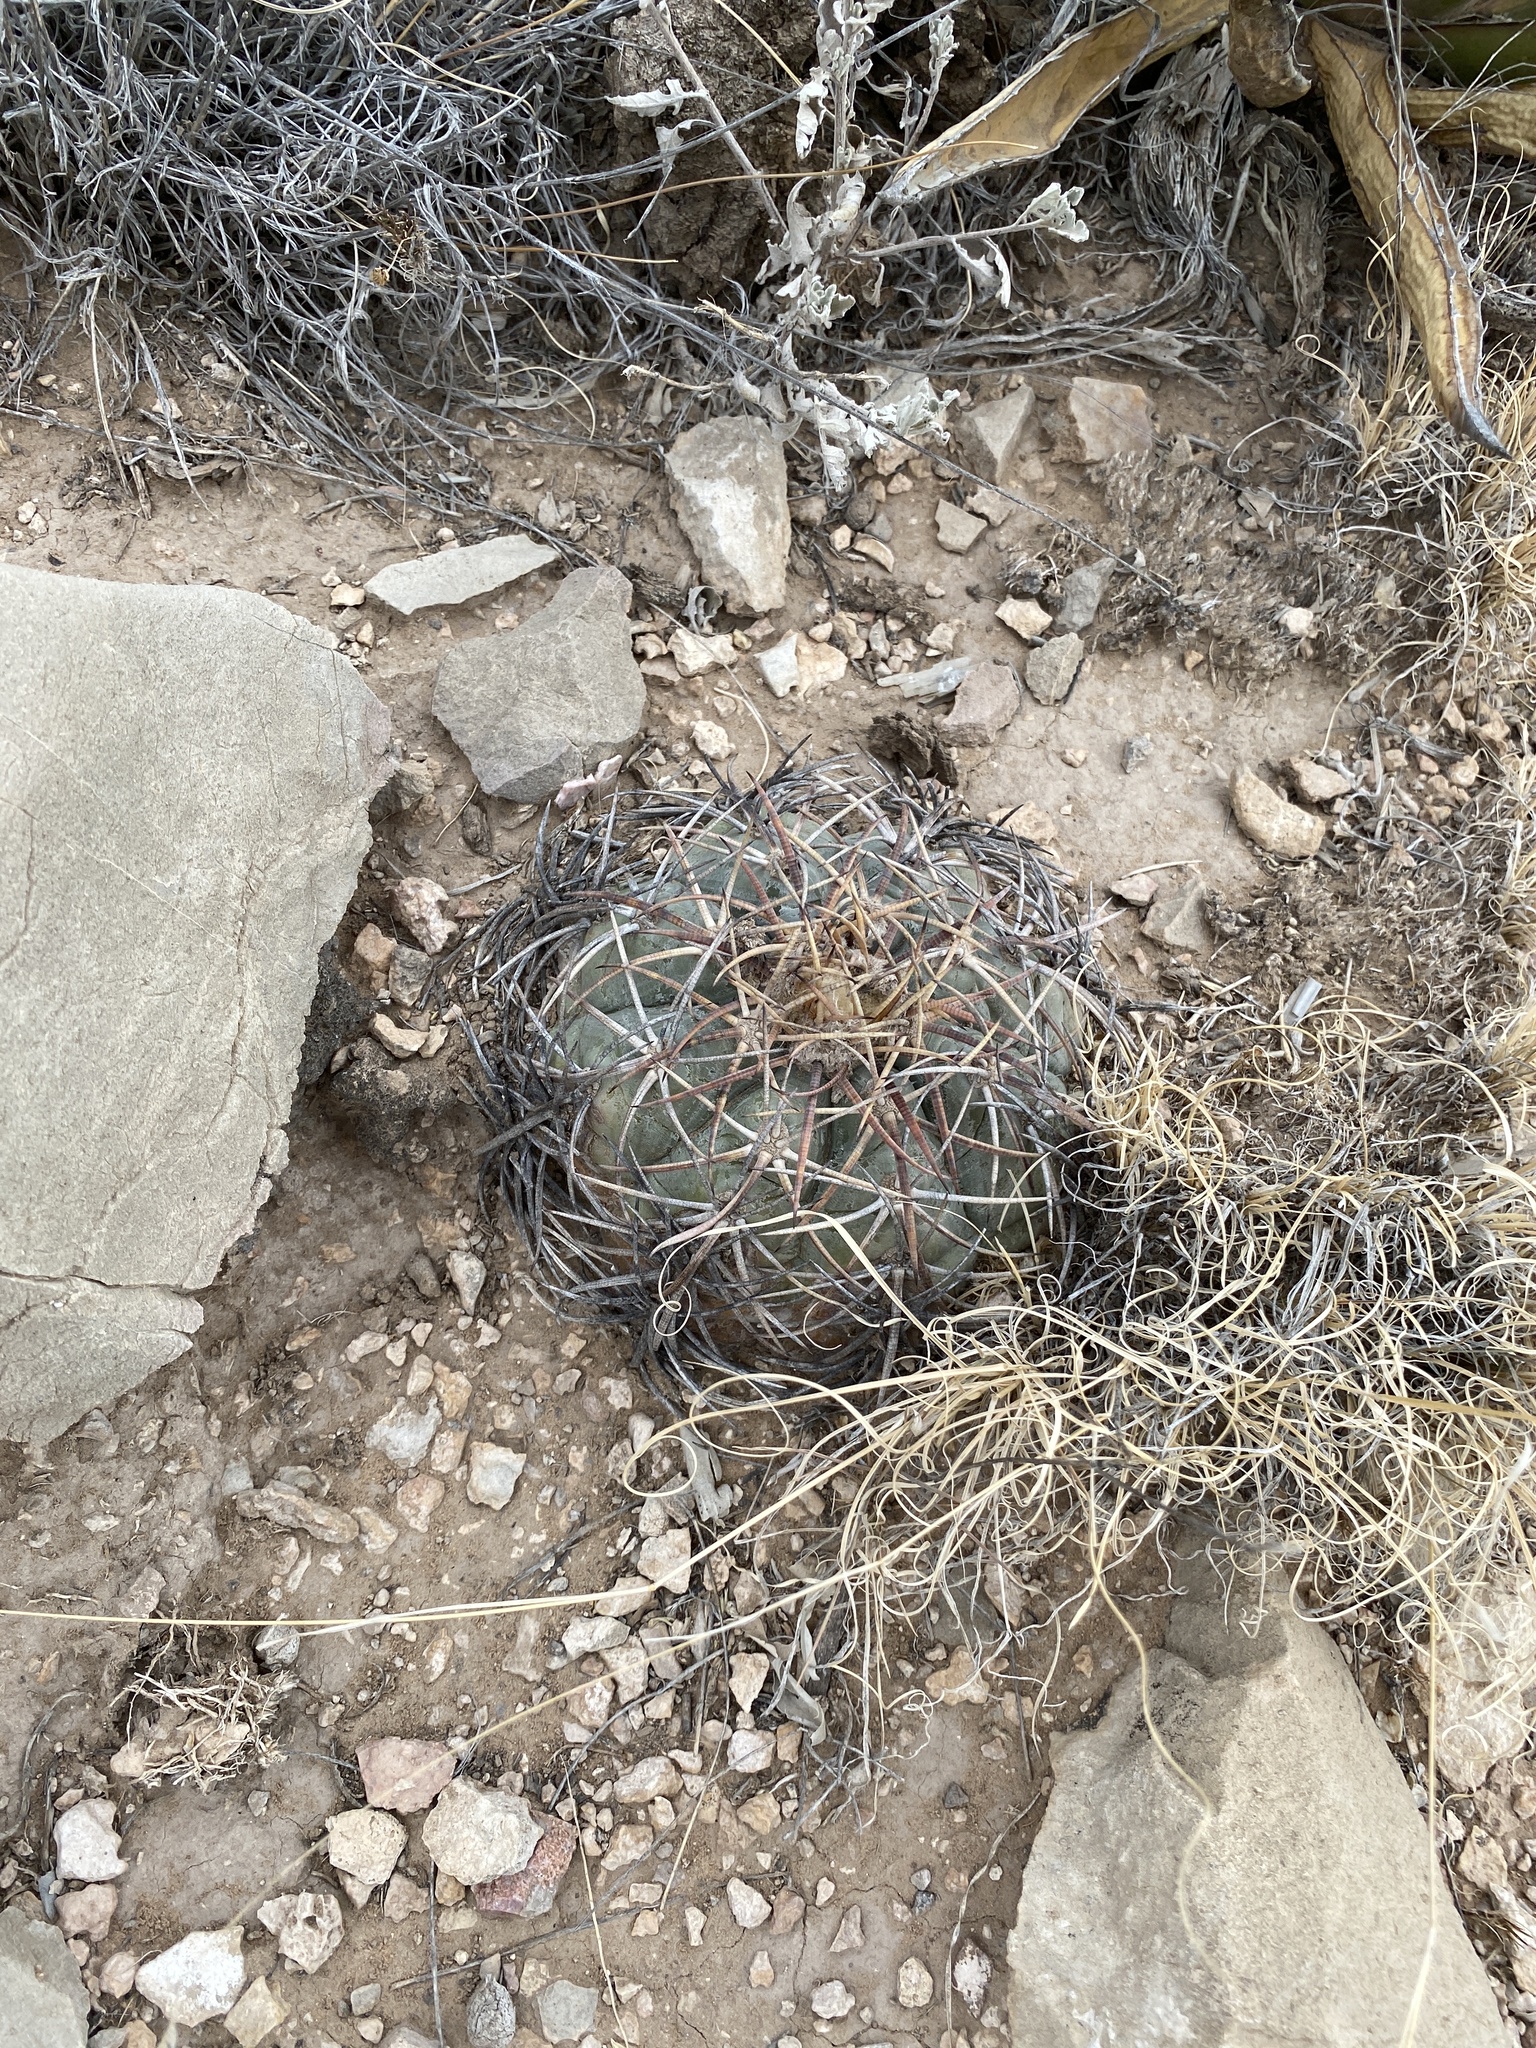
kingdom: Plantae
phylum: Tracheophyta
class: Magnoliopsida
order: Caryophyllales
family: Cactaceae
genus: Echinocactus
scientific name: Echinocactus horizonthalonius
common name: Devilshead
